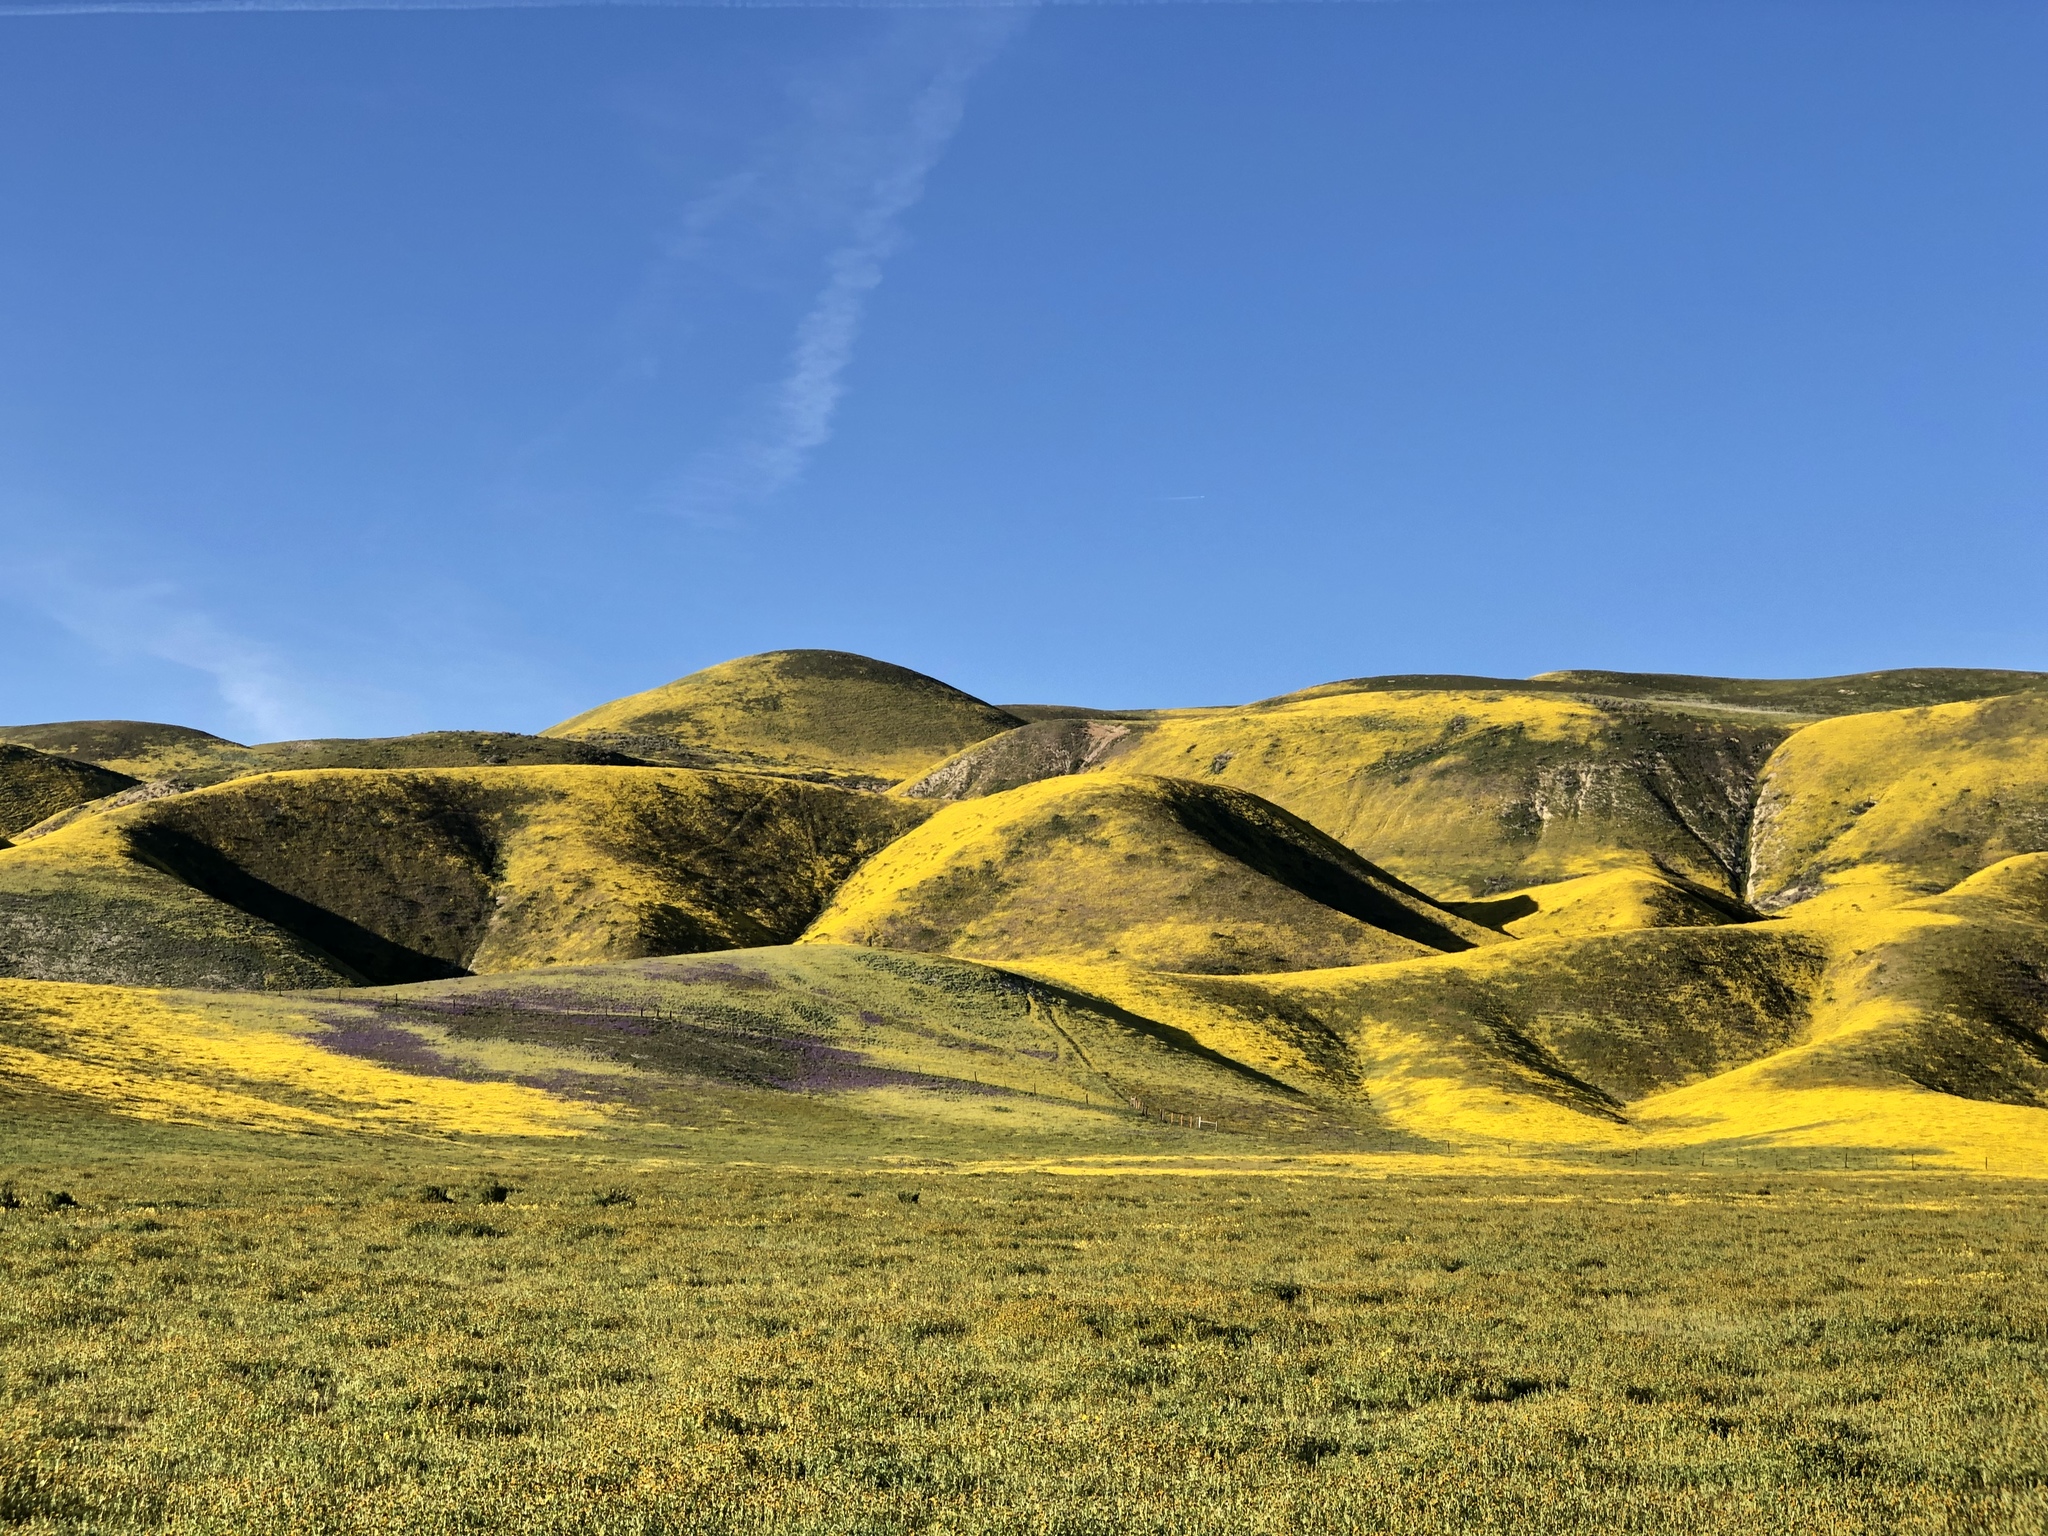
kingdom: Plantae
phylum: Tracheophyta
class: Magnoliopsida
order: Asterales
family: Asteraceae
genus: Monolopia
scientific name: Monolopia lanceolata
